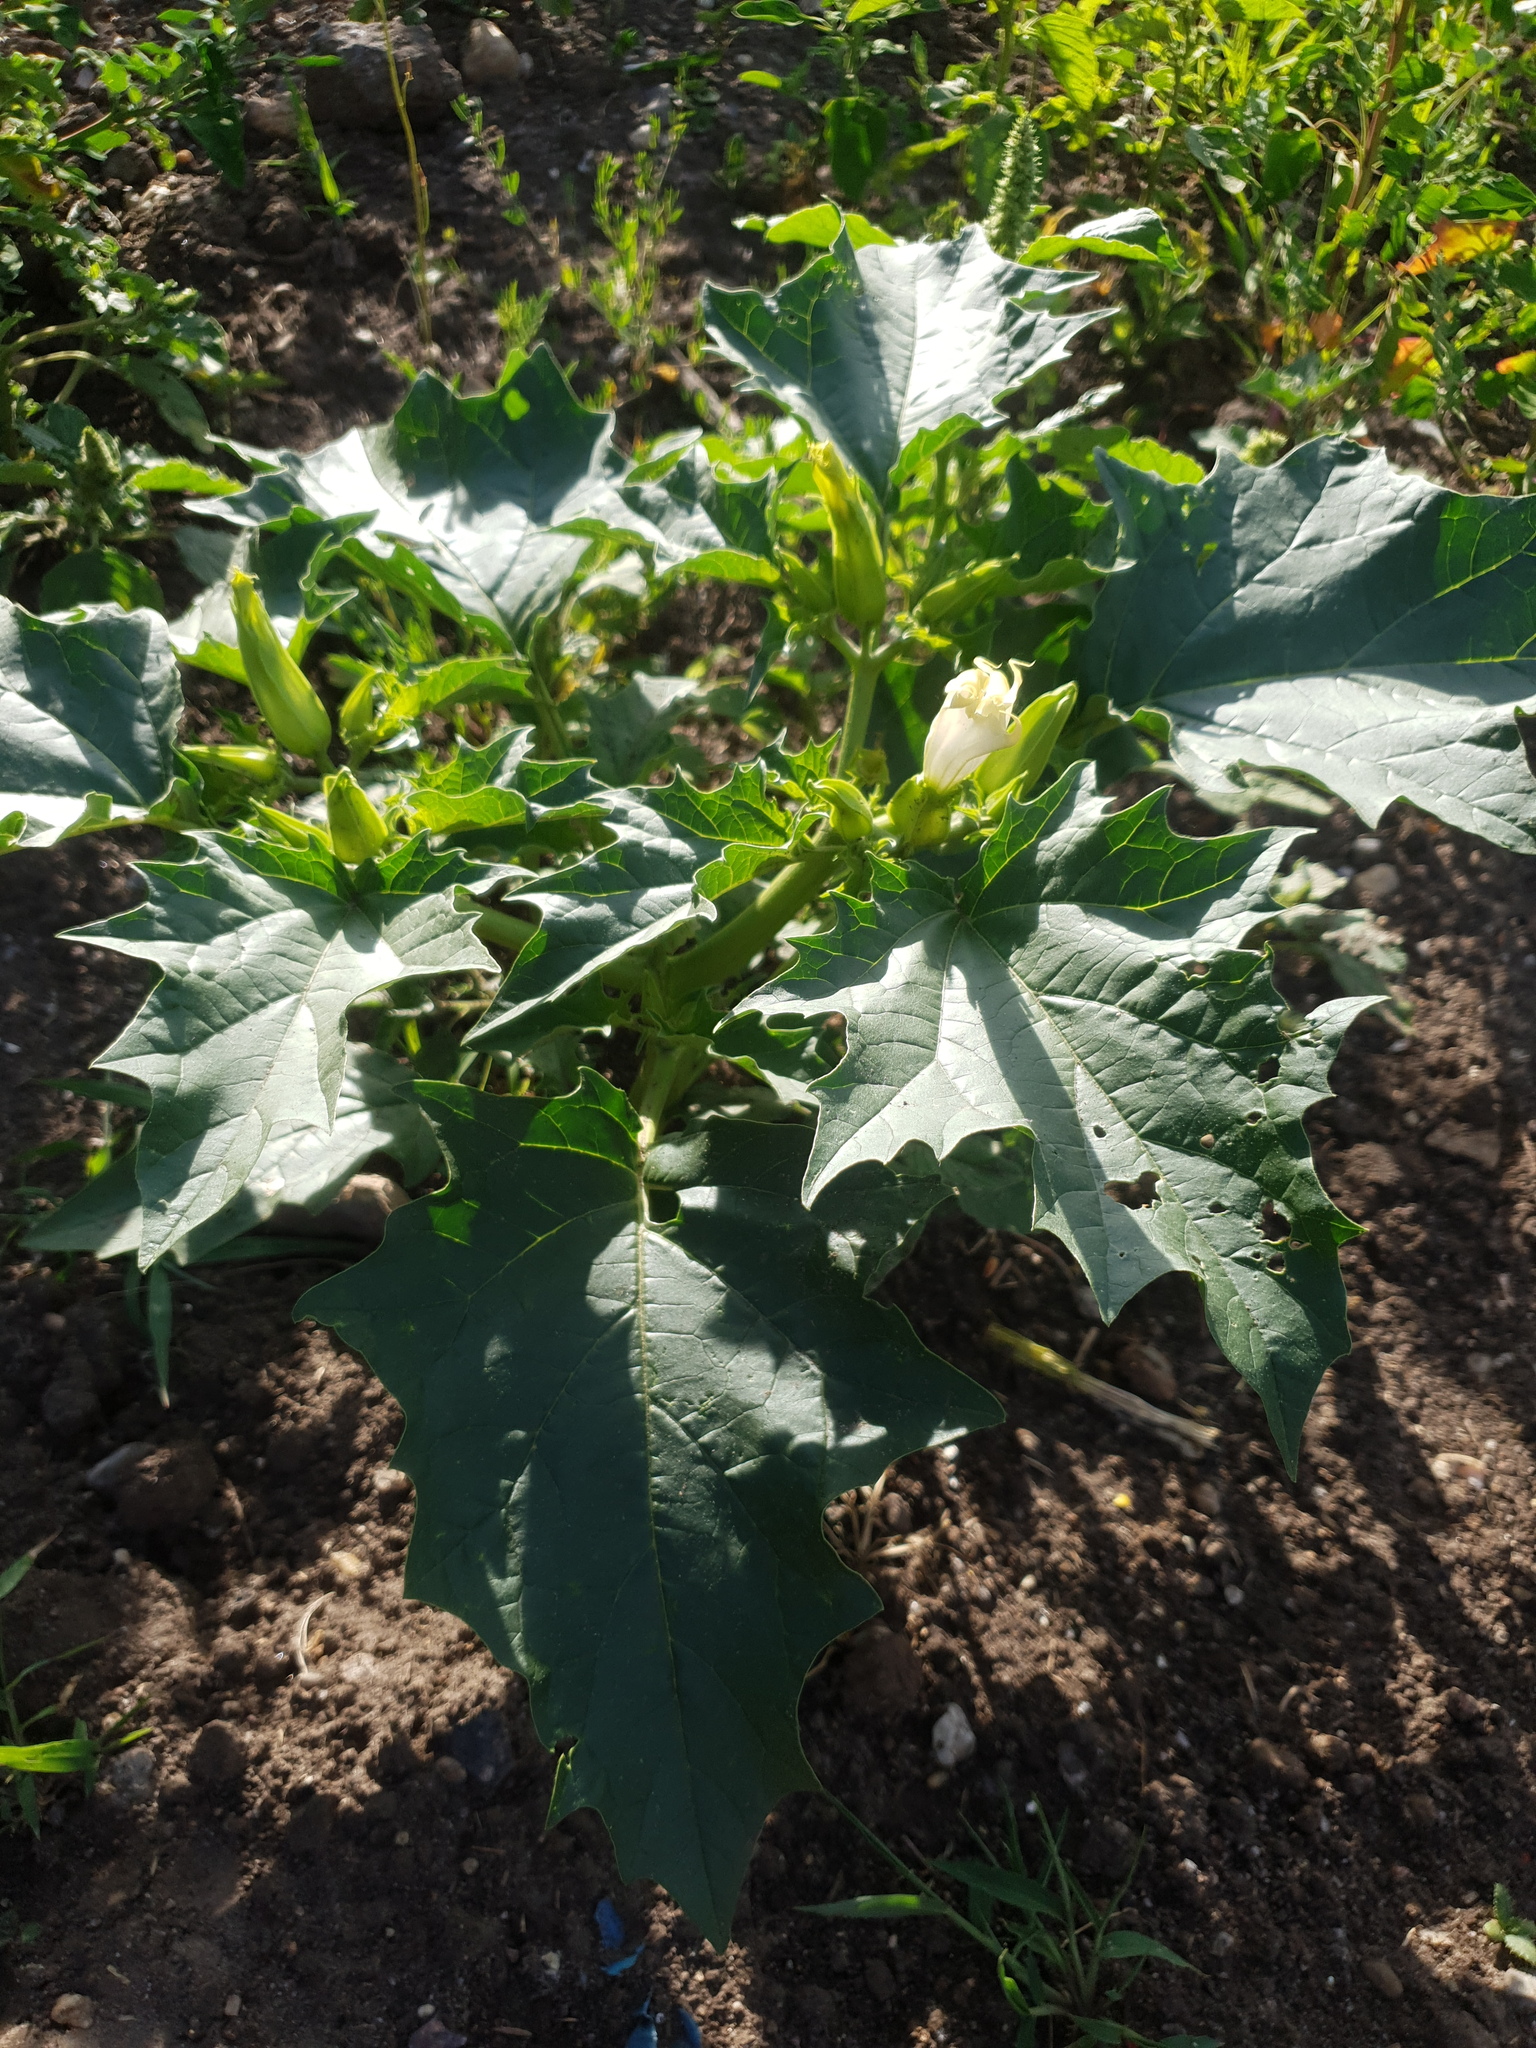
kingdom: Plantae
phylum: Tracheophyta
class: Magnoliopsida
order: Solanales
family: Solanaceae
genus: Datura
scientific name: Datura stramonium
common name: Thorn-apple
